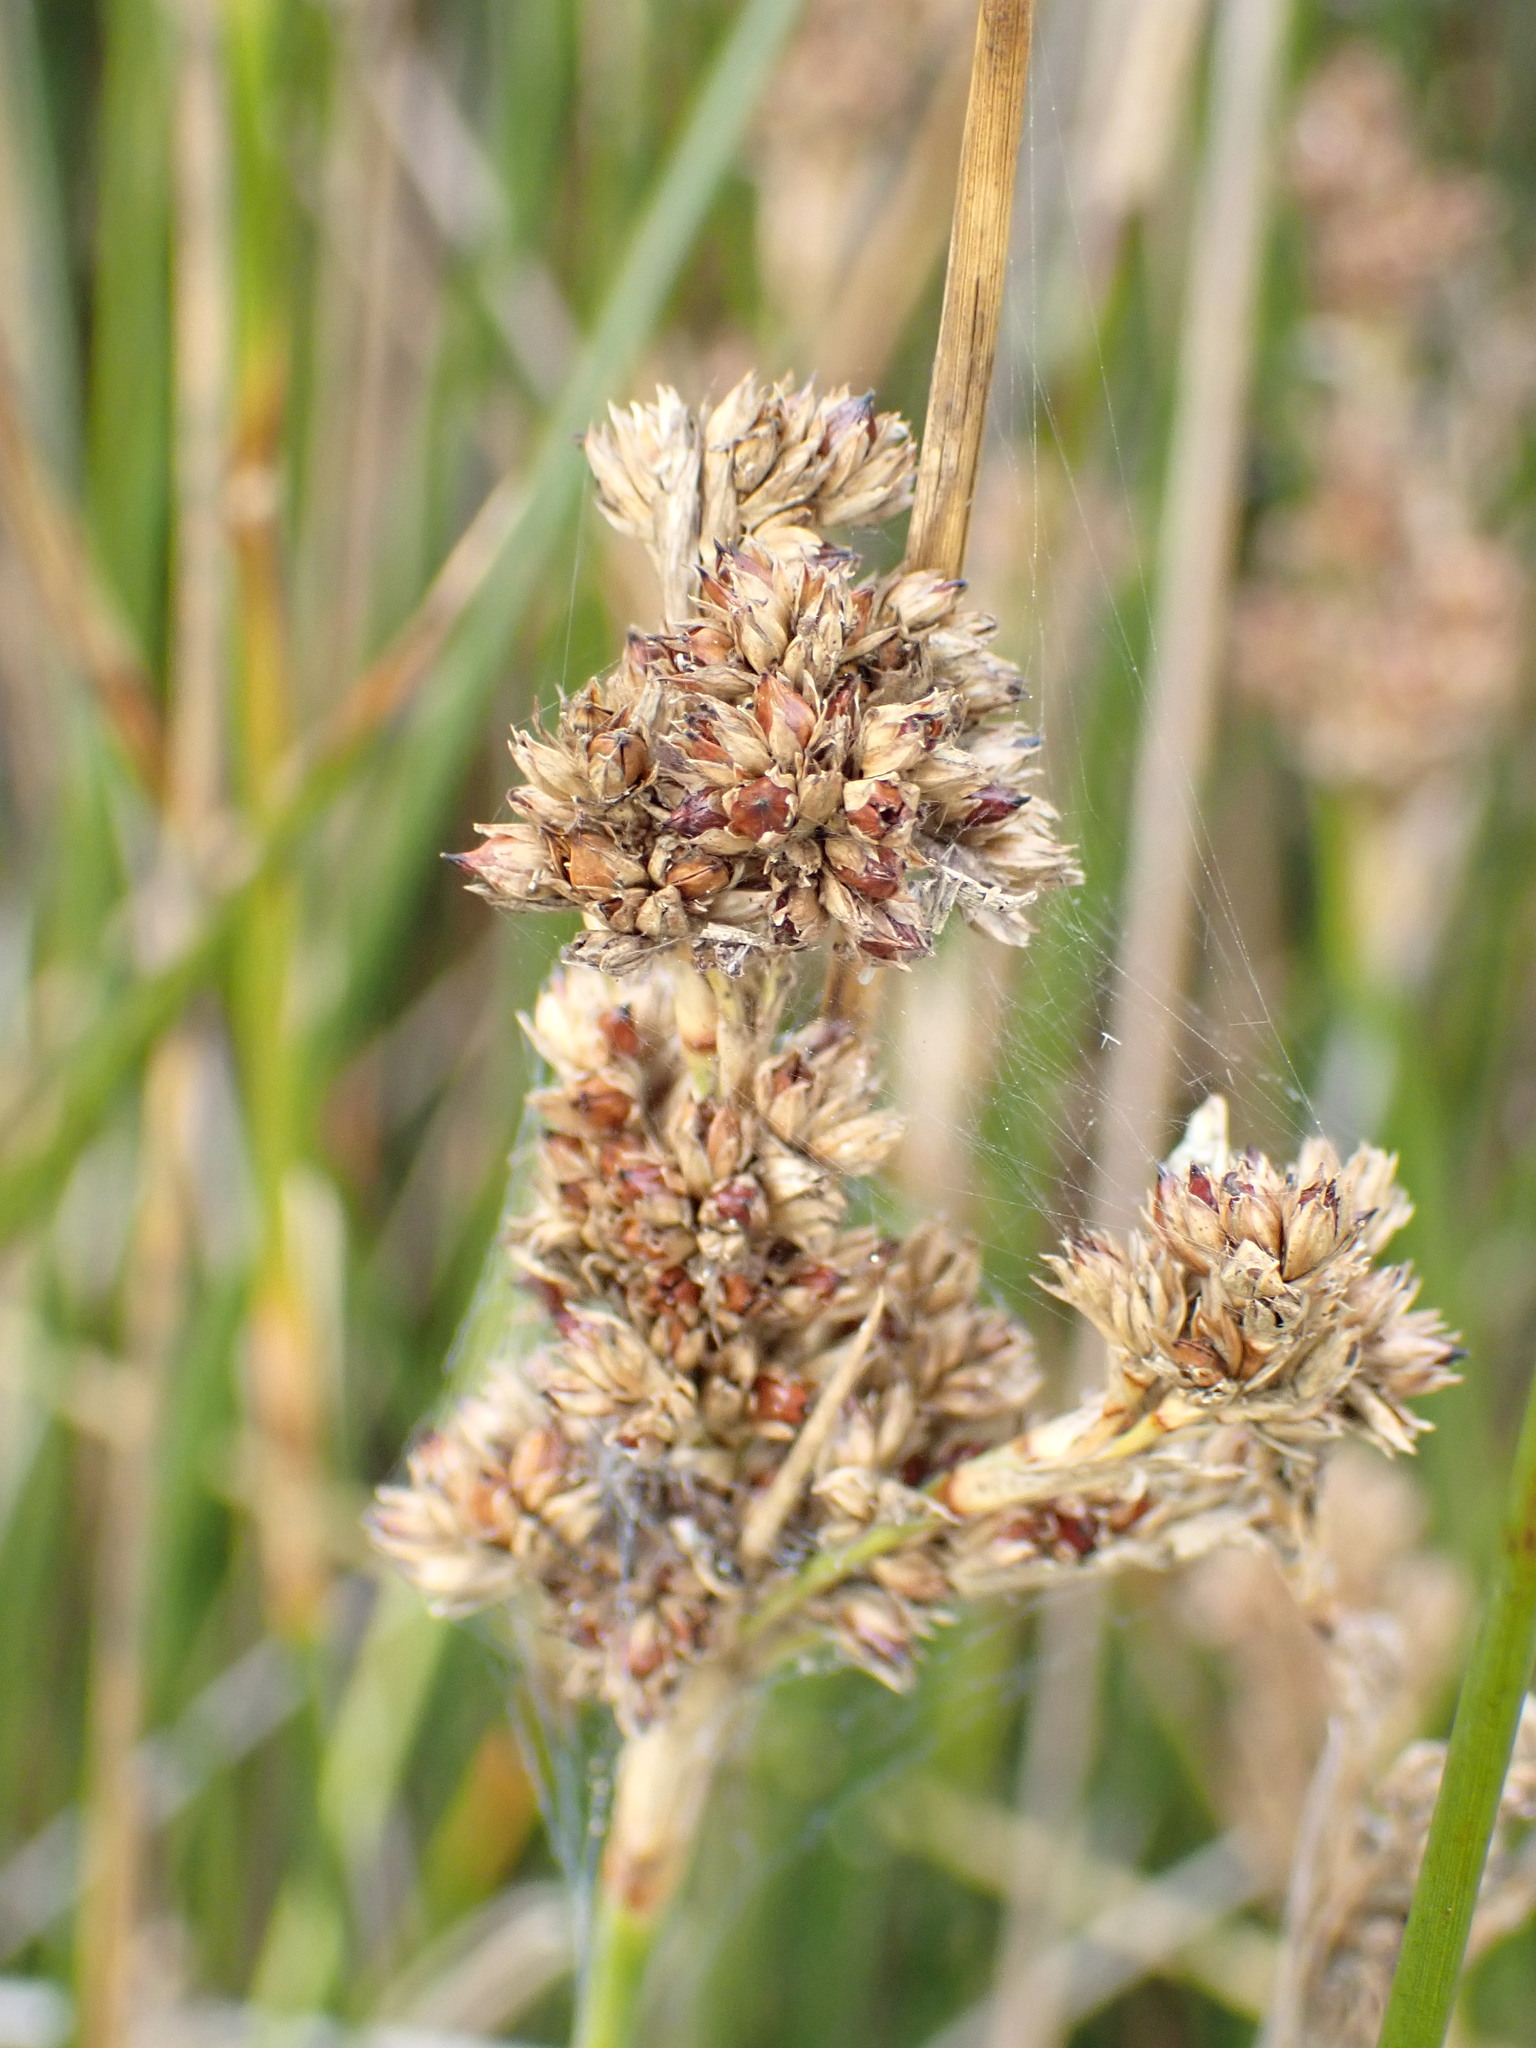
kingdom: Plantae
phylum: Tracheophyta
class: Liliopsida
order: Poales
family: Juncaceae
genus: Juncus
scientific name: Juncus maritimus
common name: Sea rush
